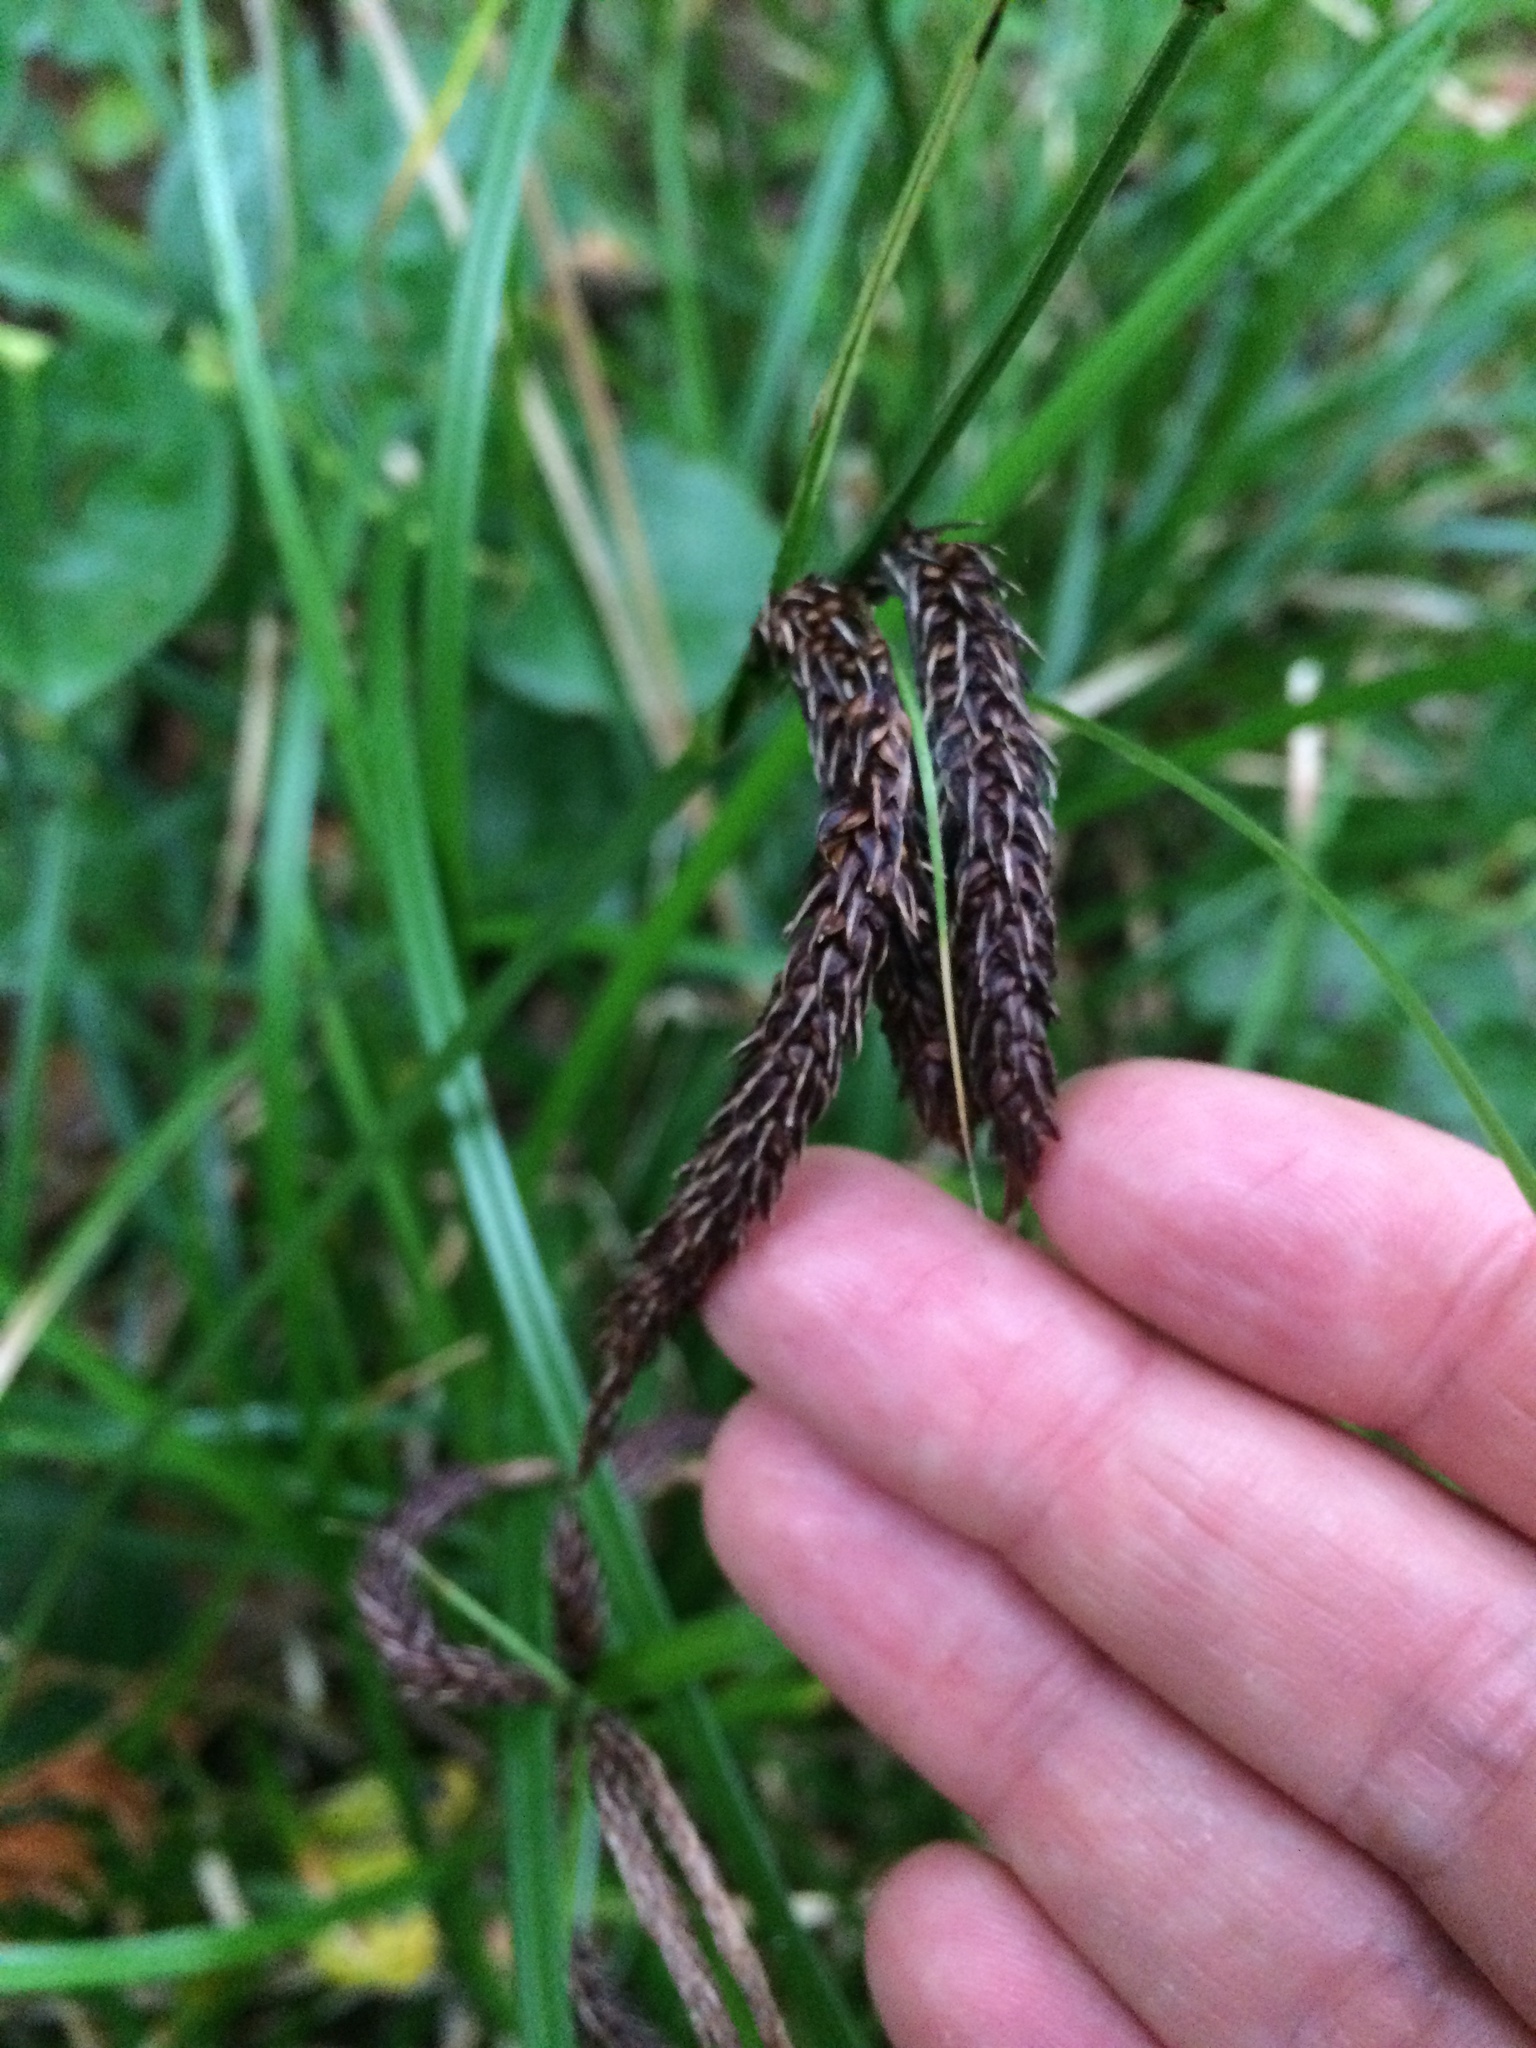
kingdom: Plantae
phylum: Tracheophyta
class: Liliopsida
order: Poales
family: Cyperaceae
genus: Carex
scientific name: Carex obnupta
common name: Slough sedge
